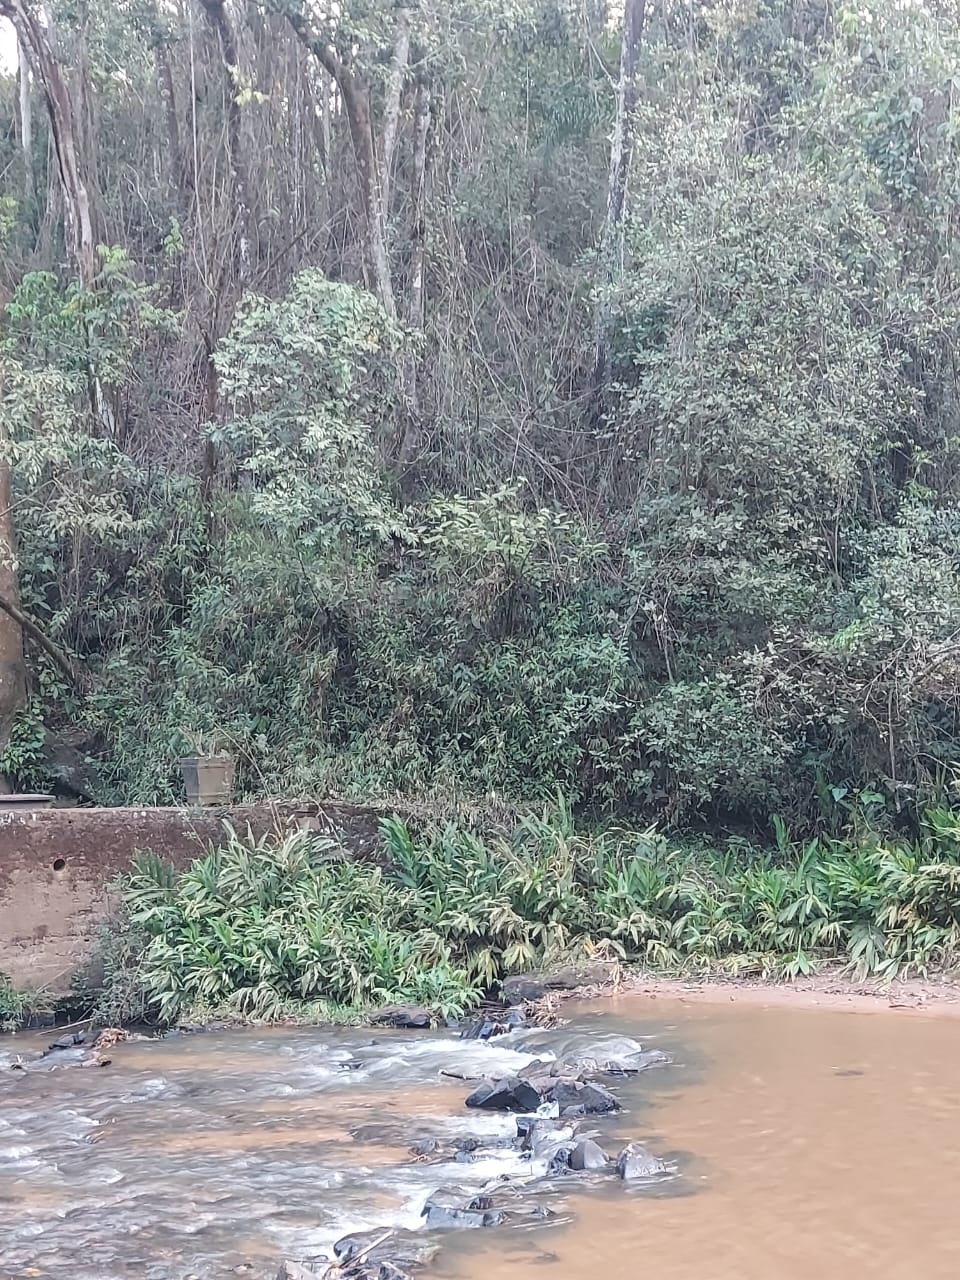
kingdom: Plantae
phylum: Tracheophyta
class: Liliopsida
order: Zingiberales
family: Zingiberaceae
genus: Hedychium
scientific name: Hedychium coronarium
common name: White garland-lily
